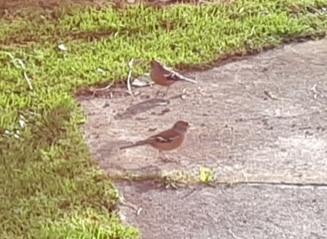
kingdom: Animalia
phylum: Chordata
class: Aves
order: Passeriformes
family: Fringillidae
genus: Fringilla
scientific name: Fringilla coelebs
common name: Common chaffinch
